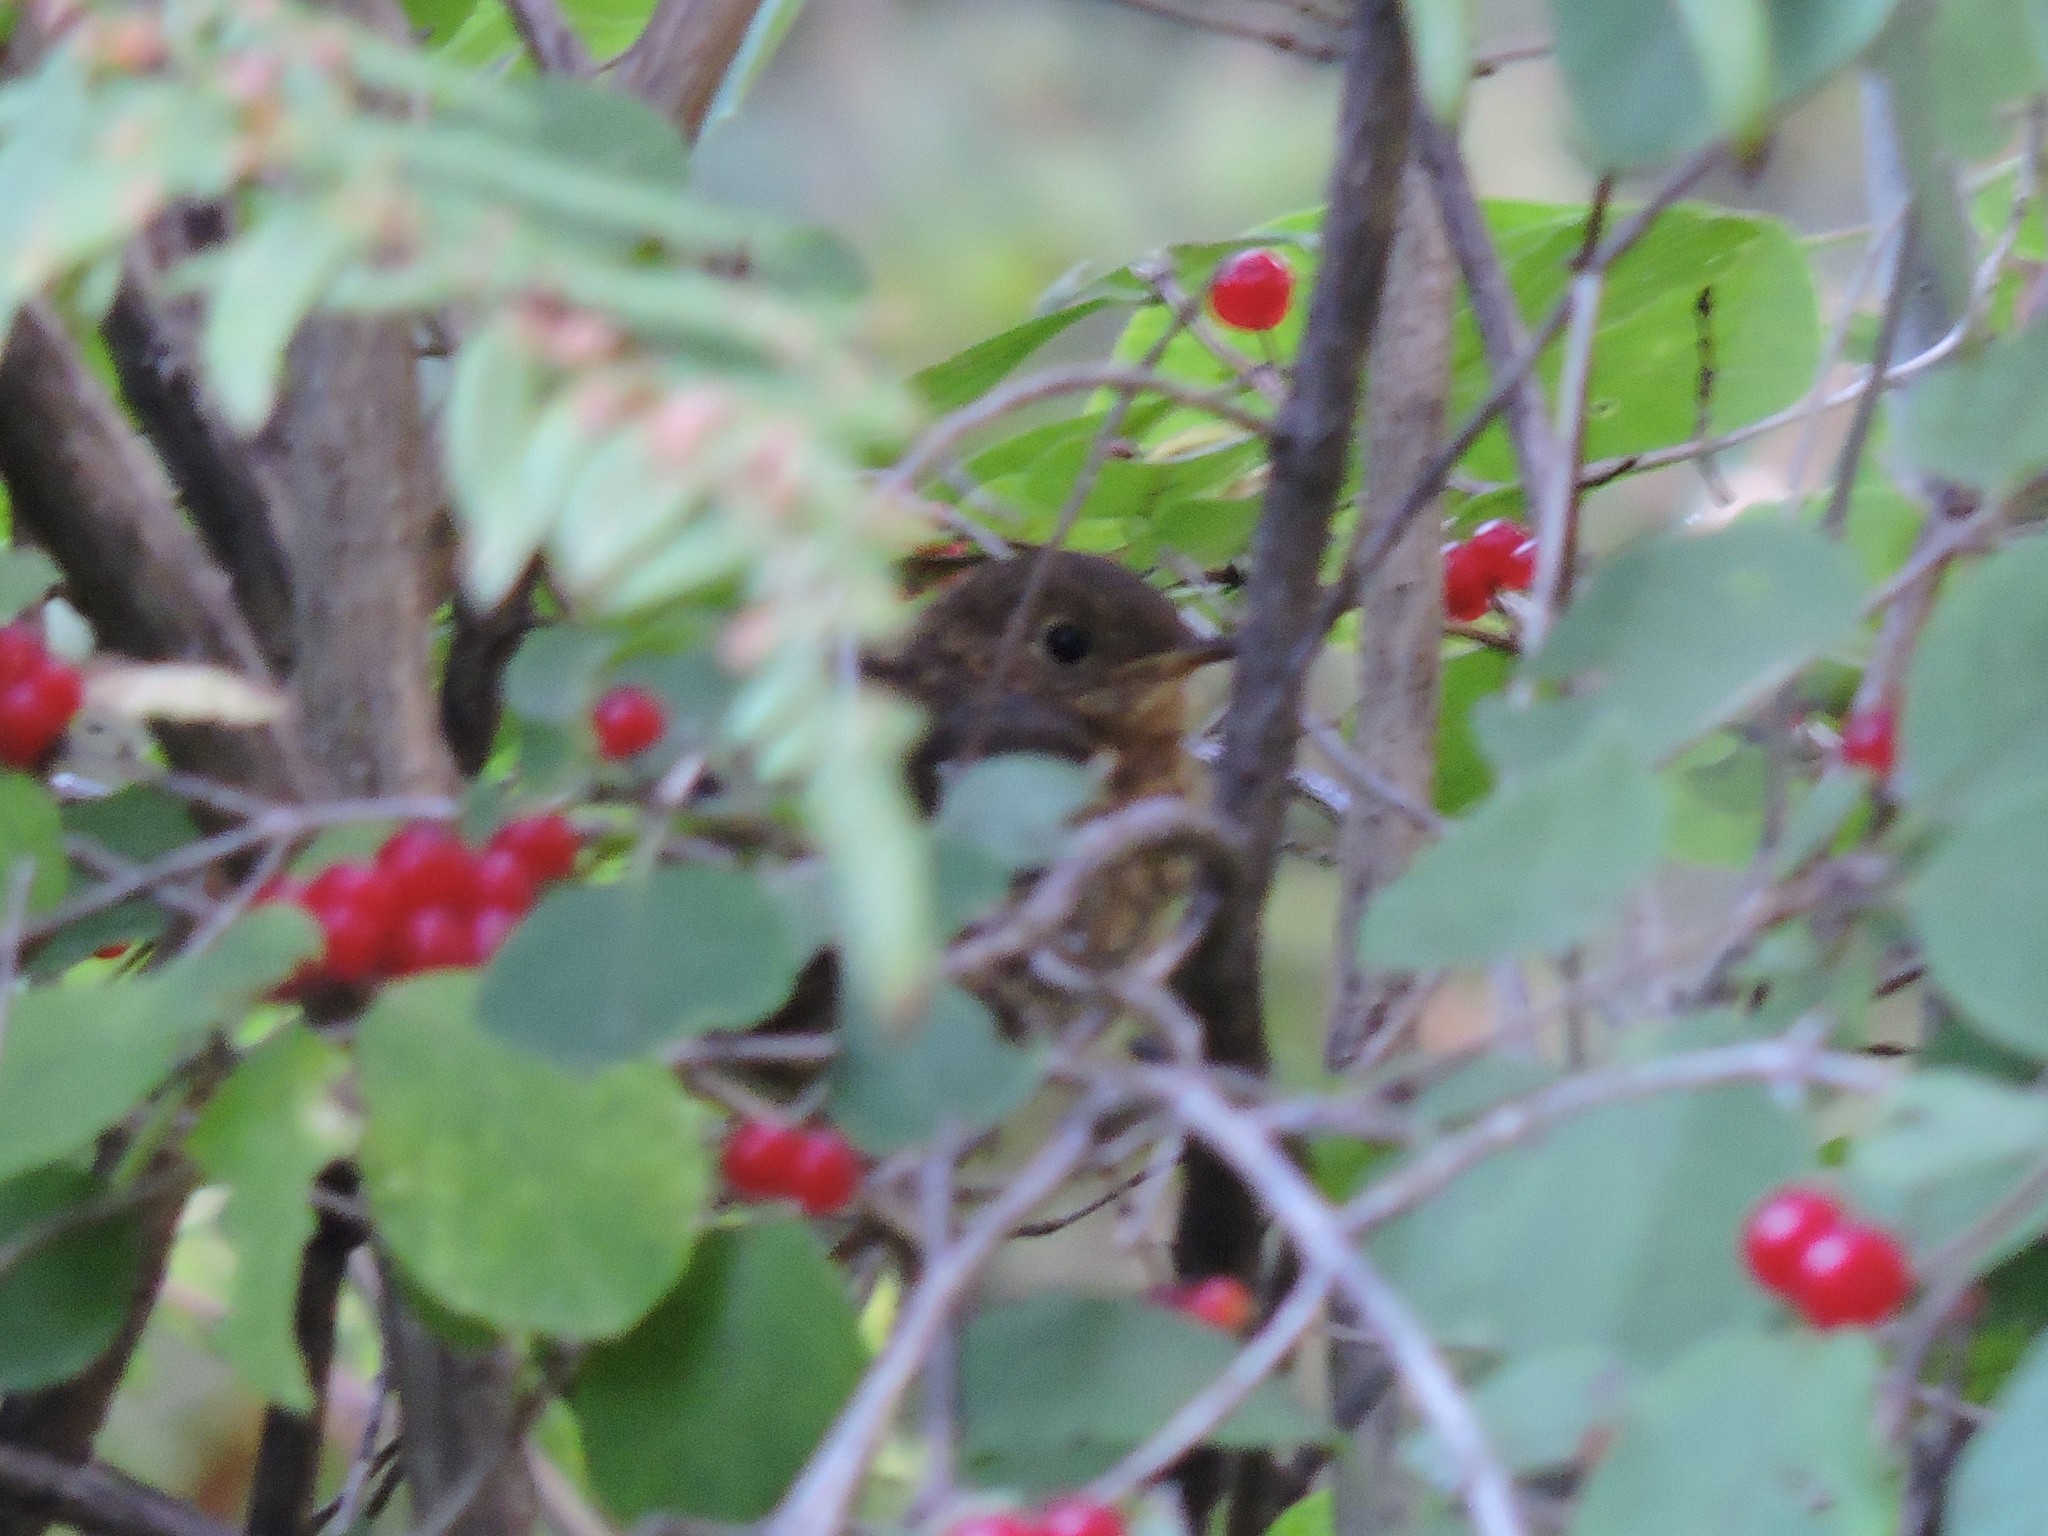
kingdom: Animalia
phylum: Chordata
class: Aves
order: Passeriformes
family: Muscicapidae
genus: Erithacus
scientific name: Erithacus rubecula
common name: European robin
